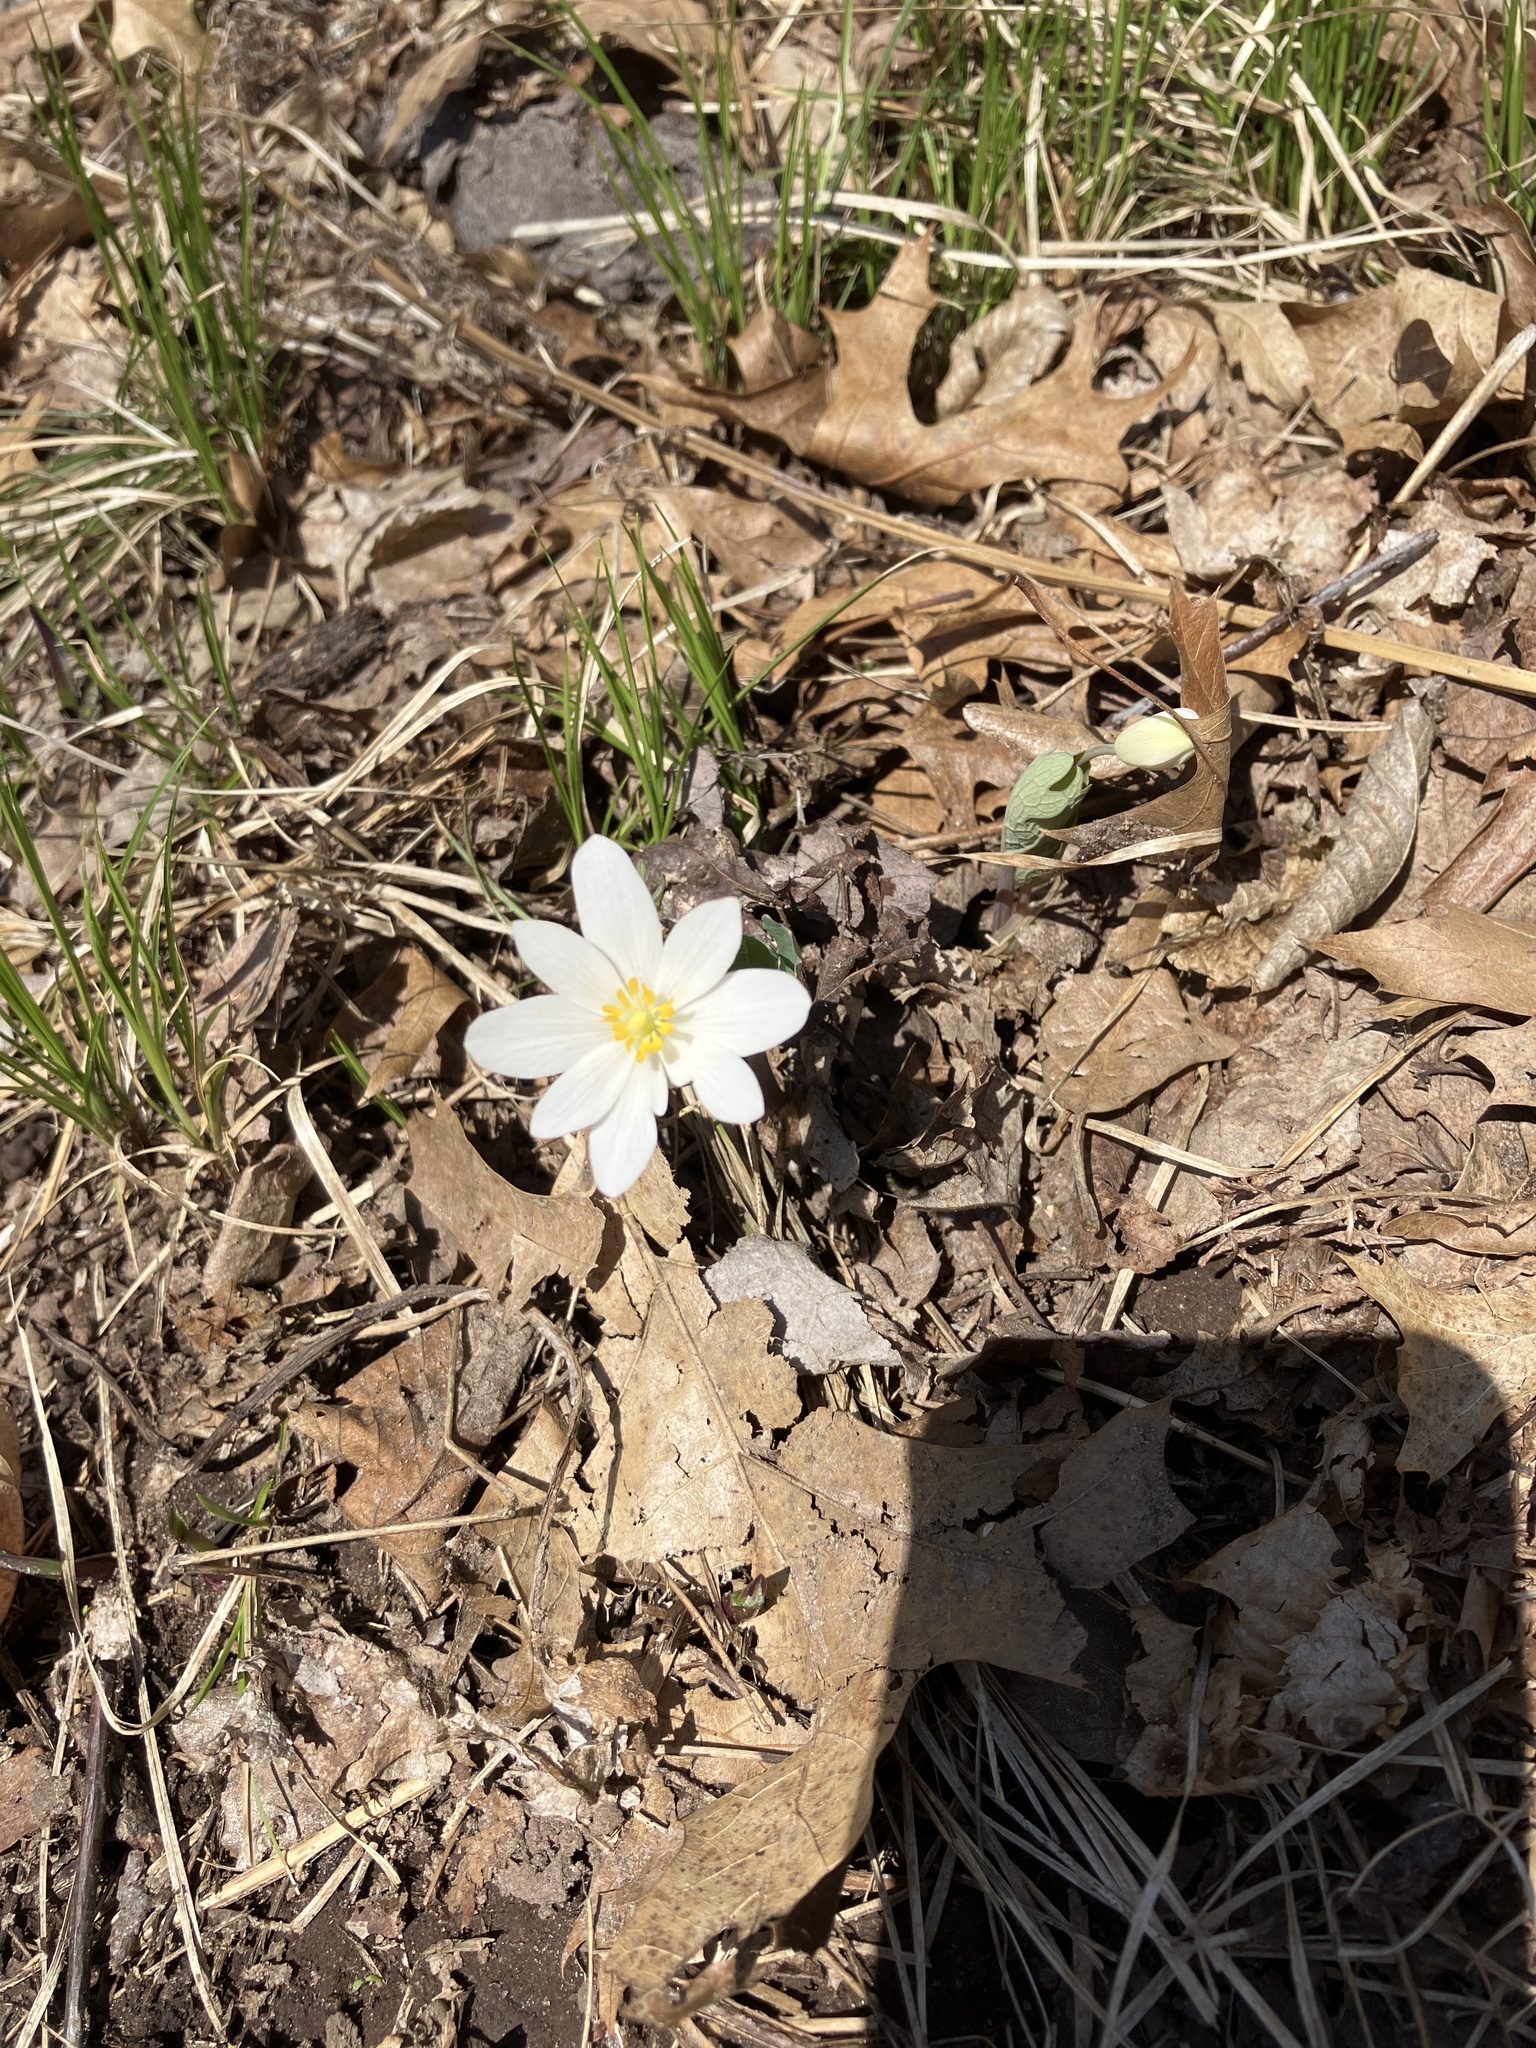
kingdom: Plantae
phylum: Tracheophyta
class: Magnoliopsida
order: Ranunculales
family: Papaveraceae
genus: Sanguinaria
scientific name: Sanguinaria canadensis
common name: Bloodroot
